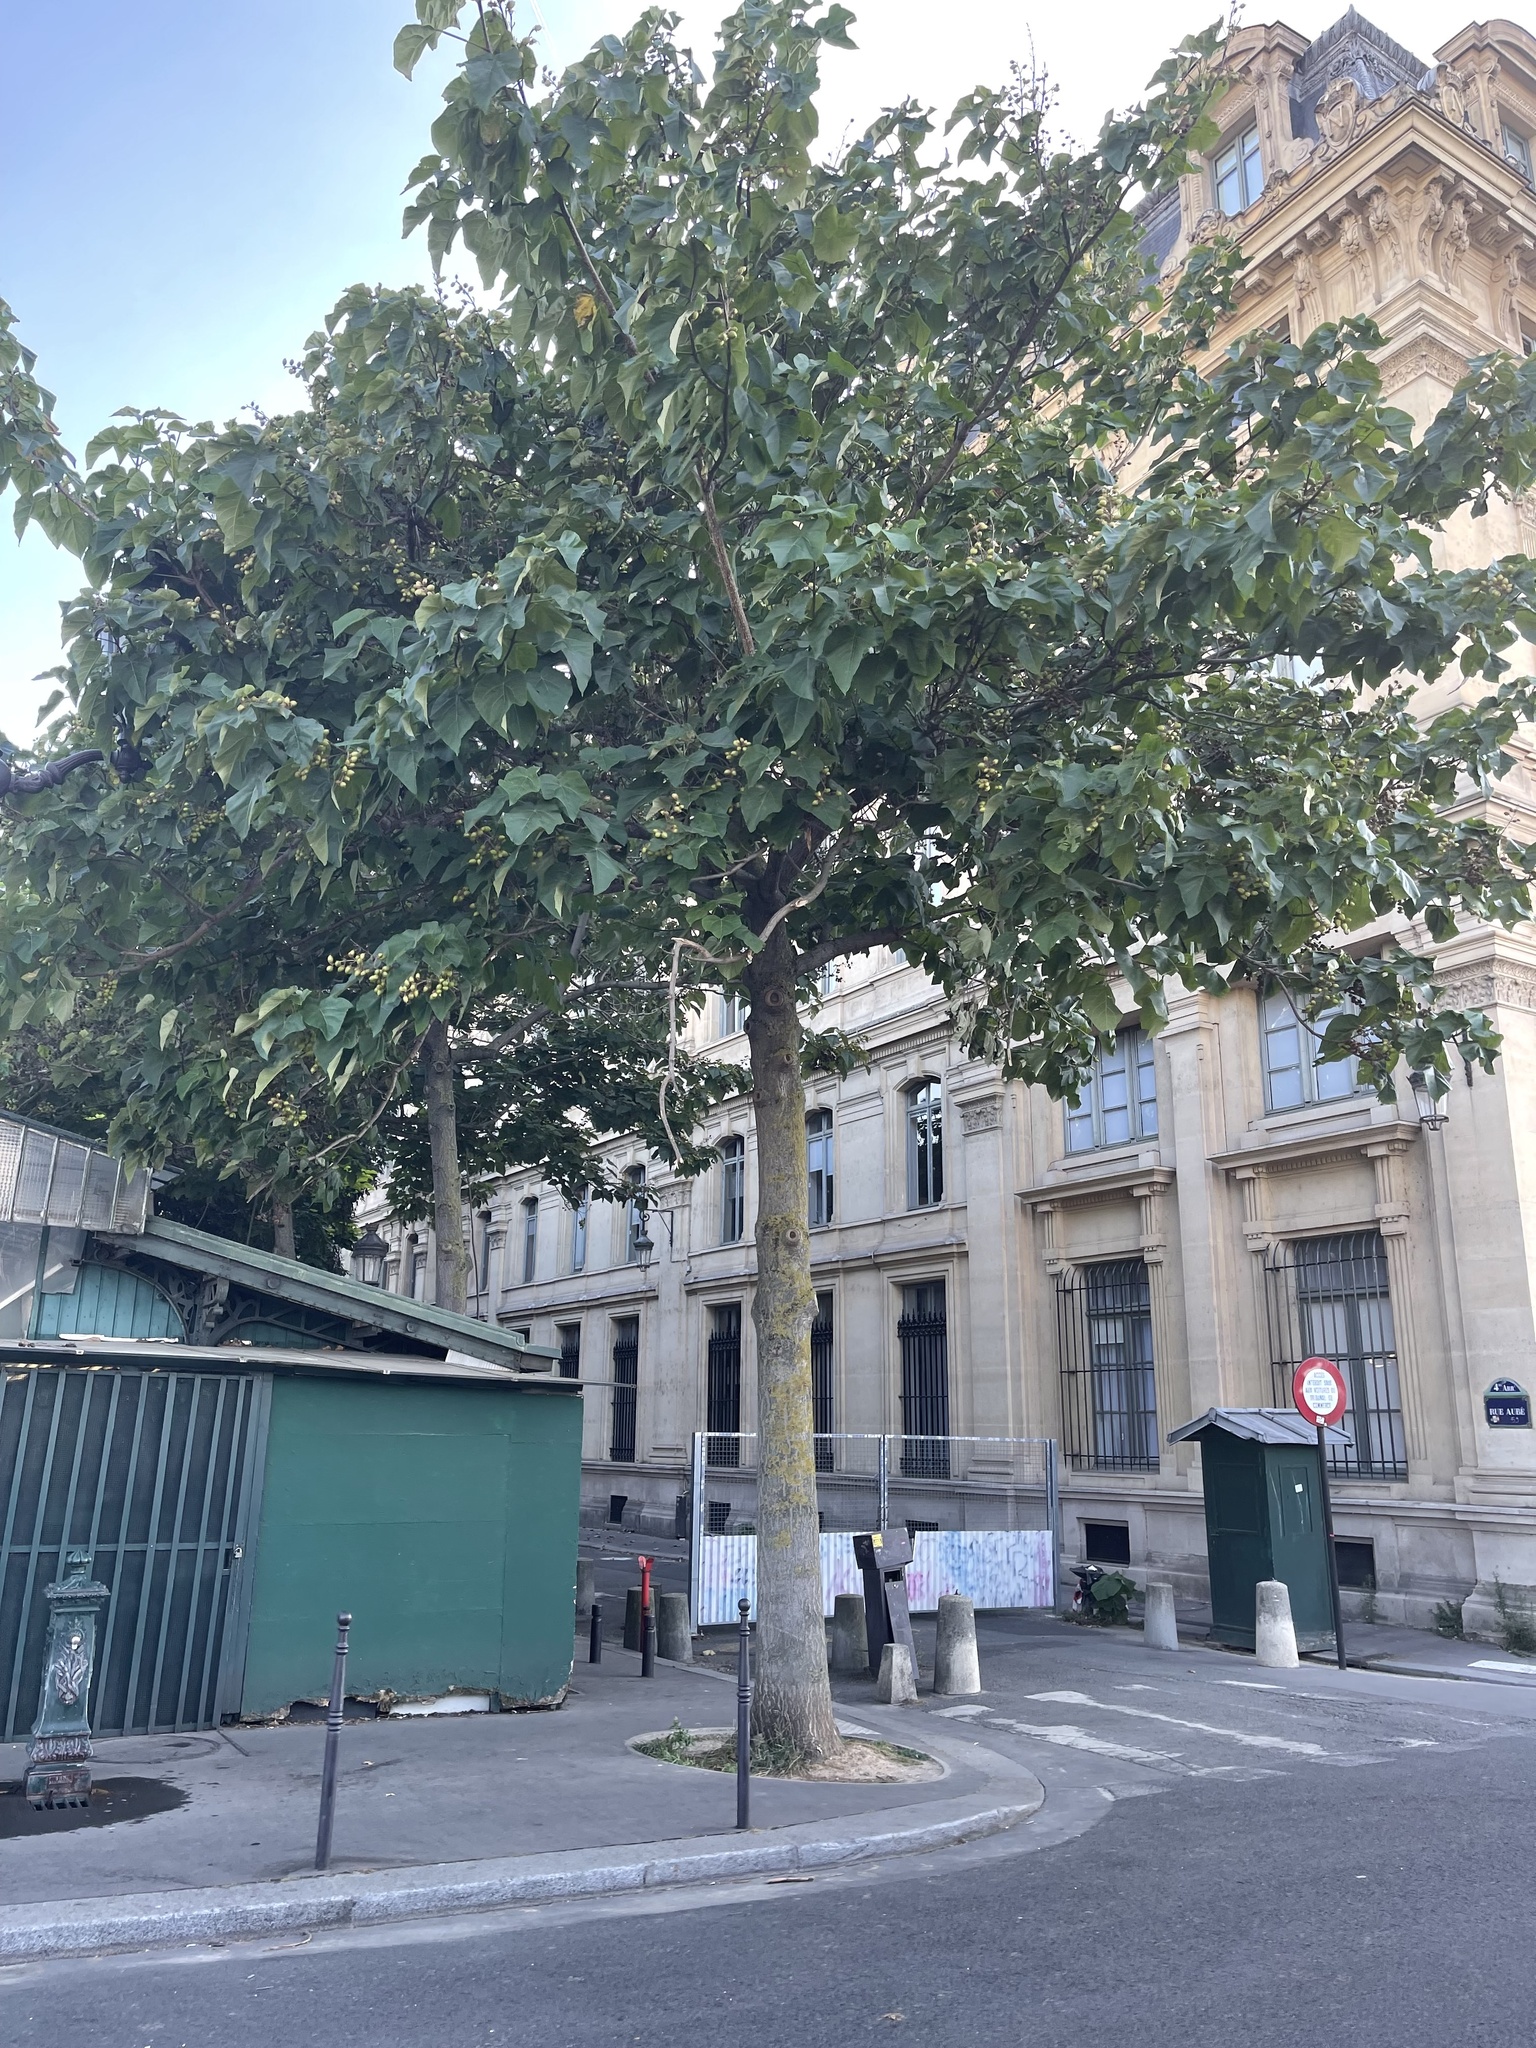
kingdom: Plantae
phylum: Tracheophyta
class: Magnoliopsida
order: Lamiales
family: Paulowniaceae
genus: Paulownia
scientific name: Paulownia tomentosa
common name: Foxglove-tree
